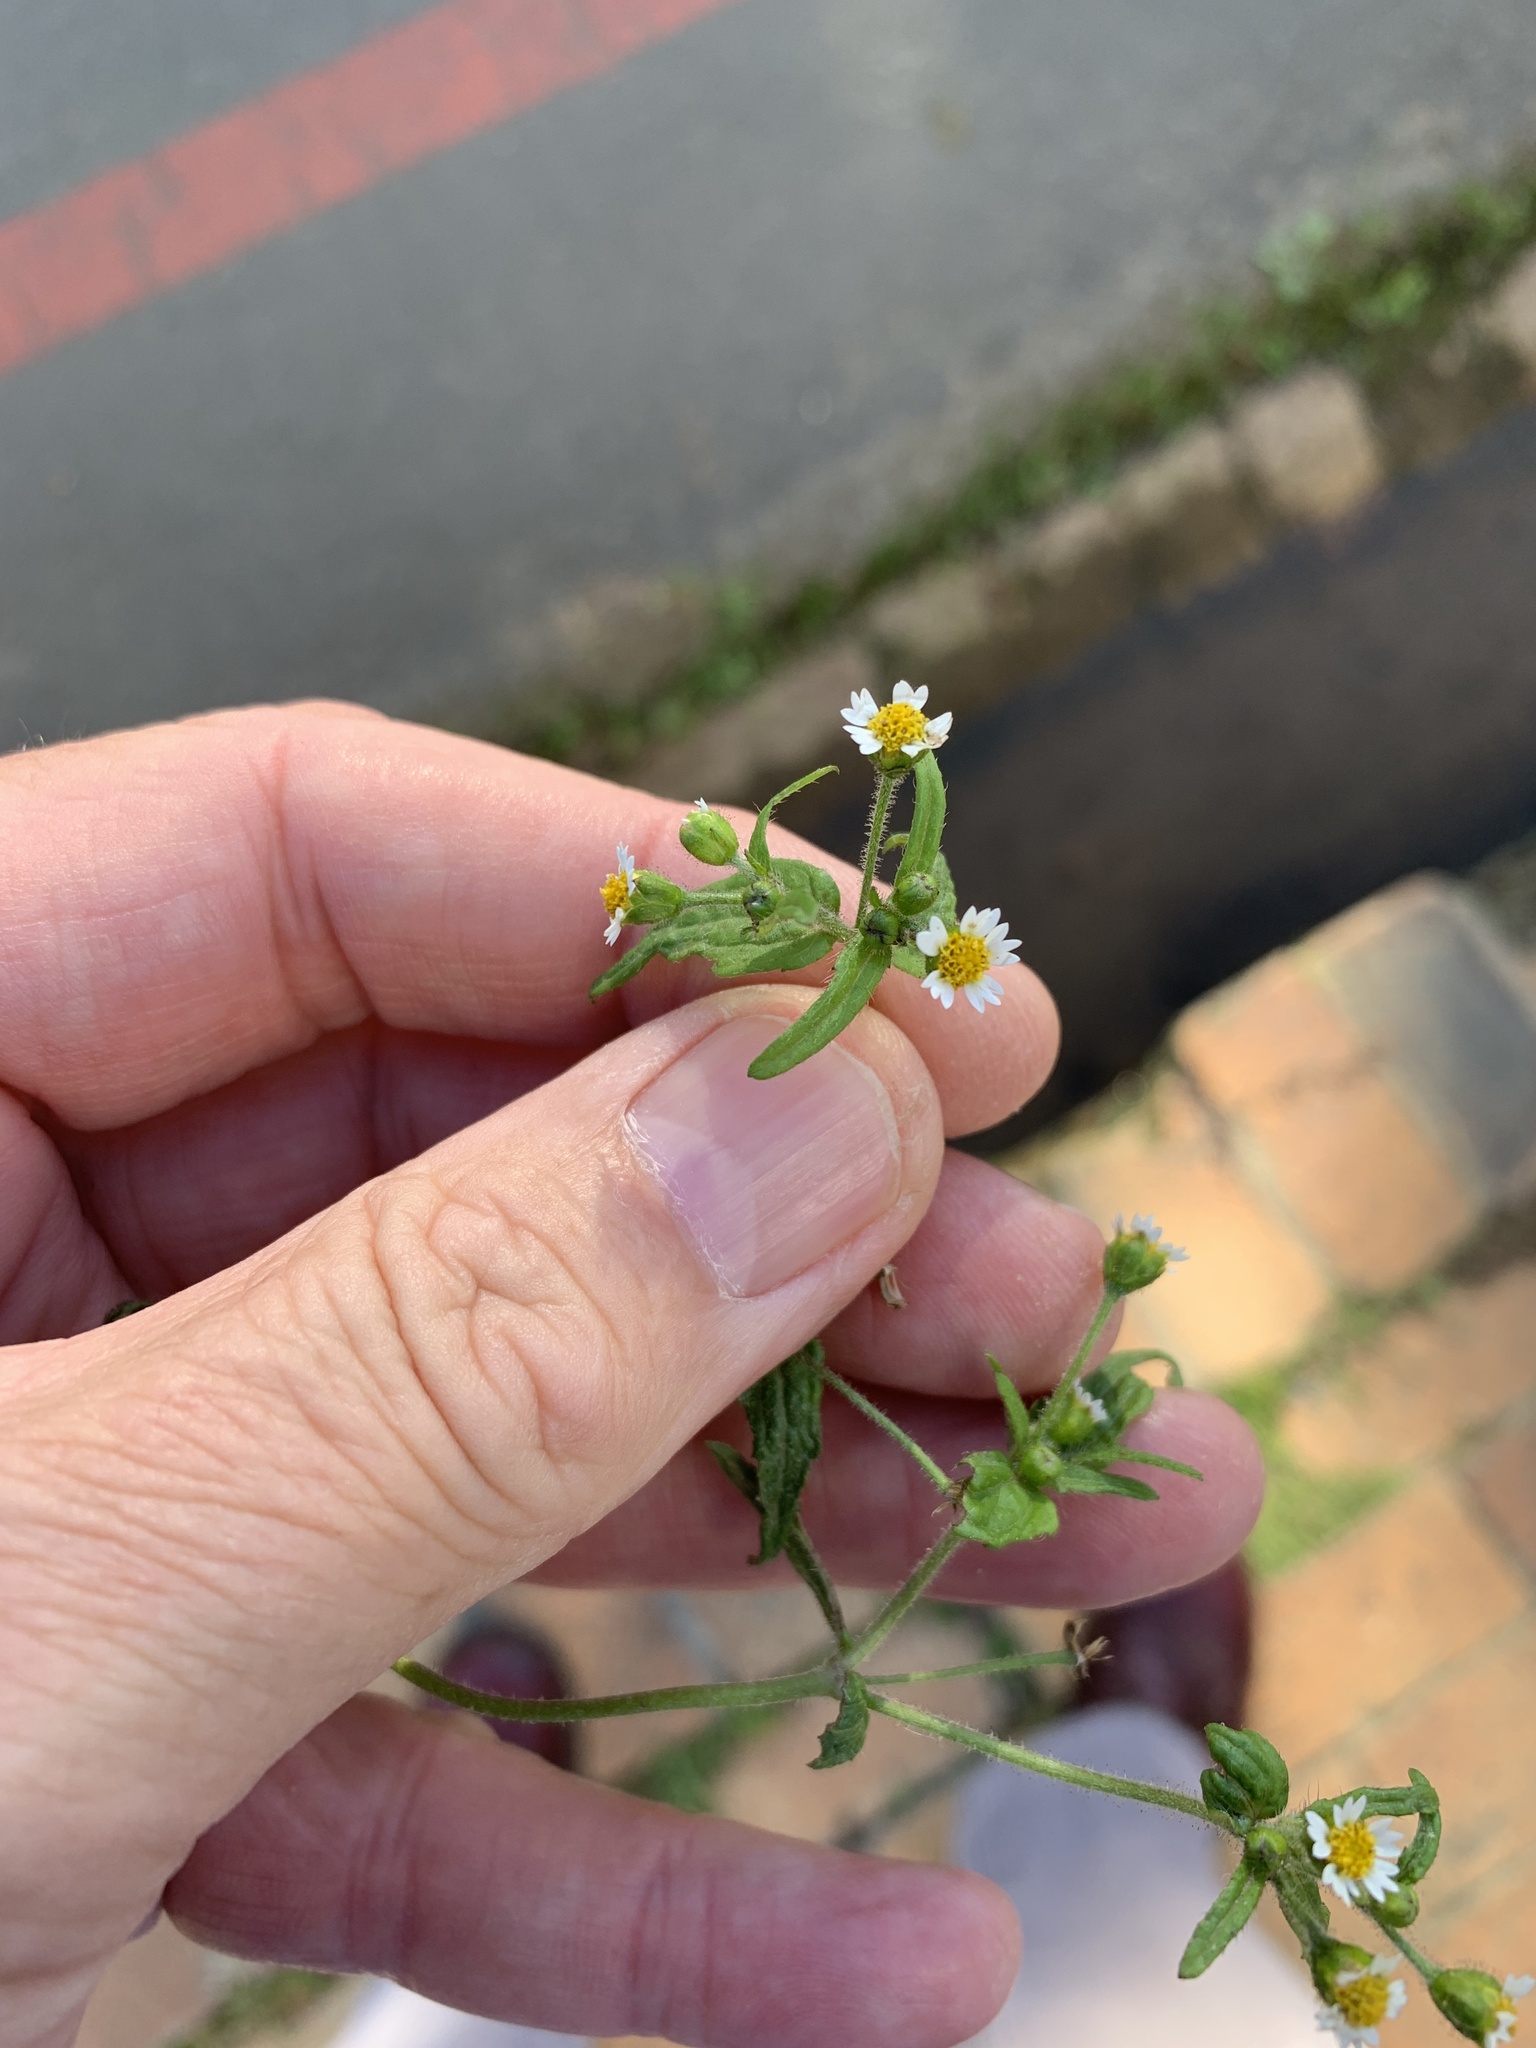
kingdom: Plantae
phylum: Tracheophyta
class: Magnoliopsida
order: Asterales
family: Asteraceae
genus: Galinsoga
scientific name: Galinsoga quadriradiata
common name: Shaggy soldier
